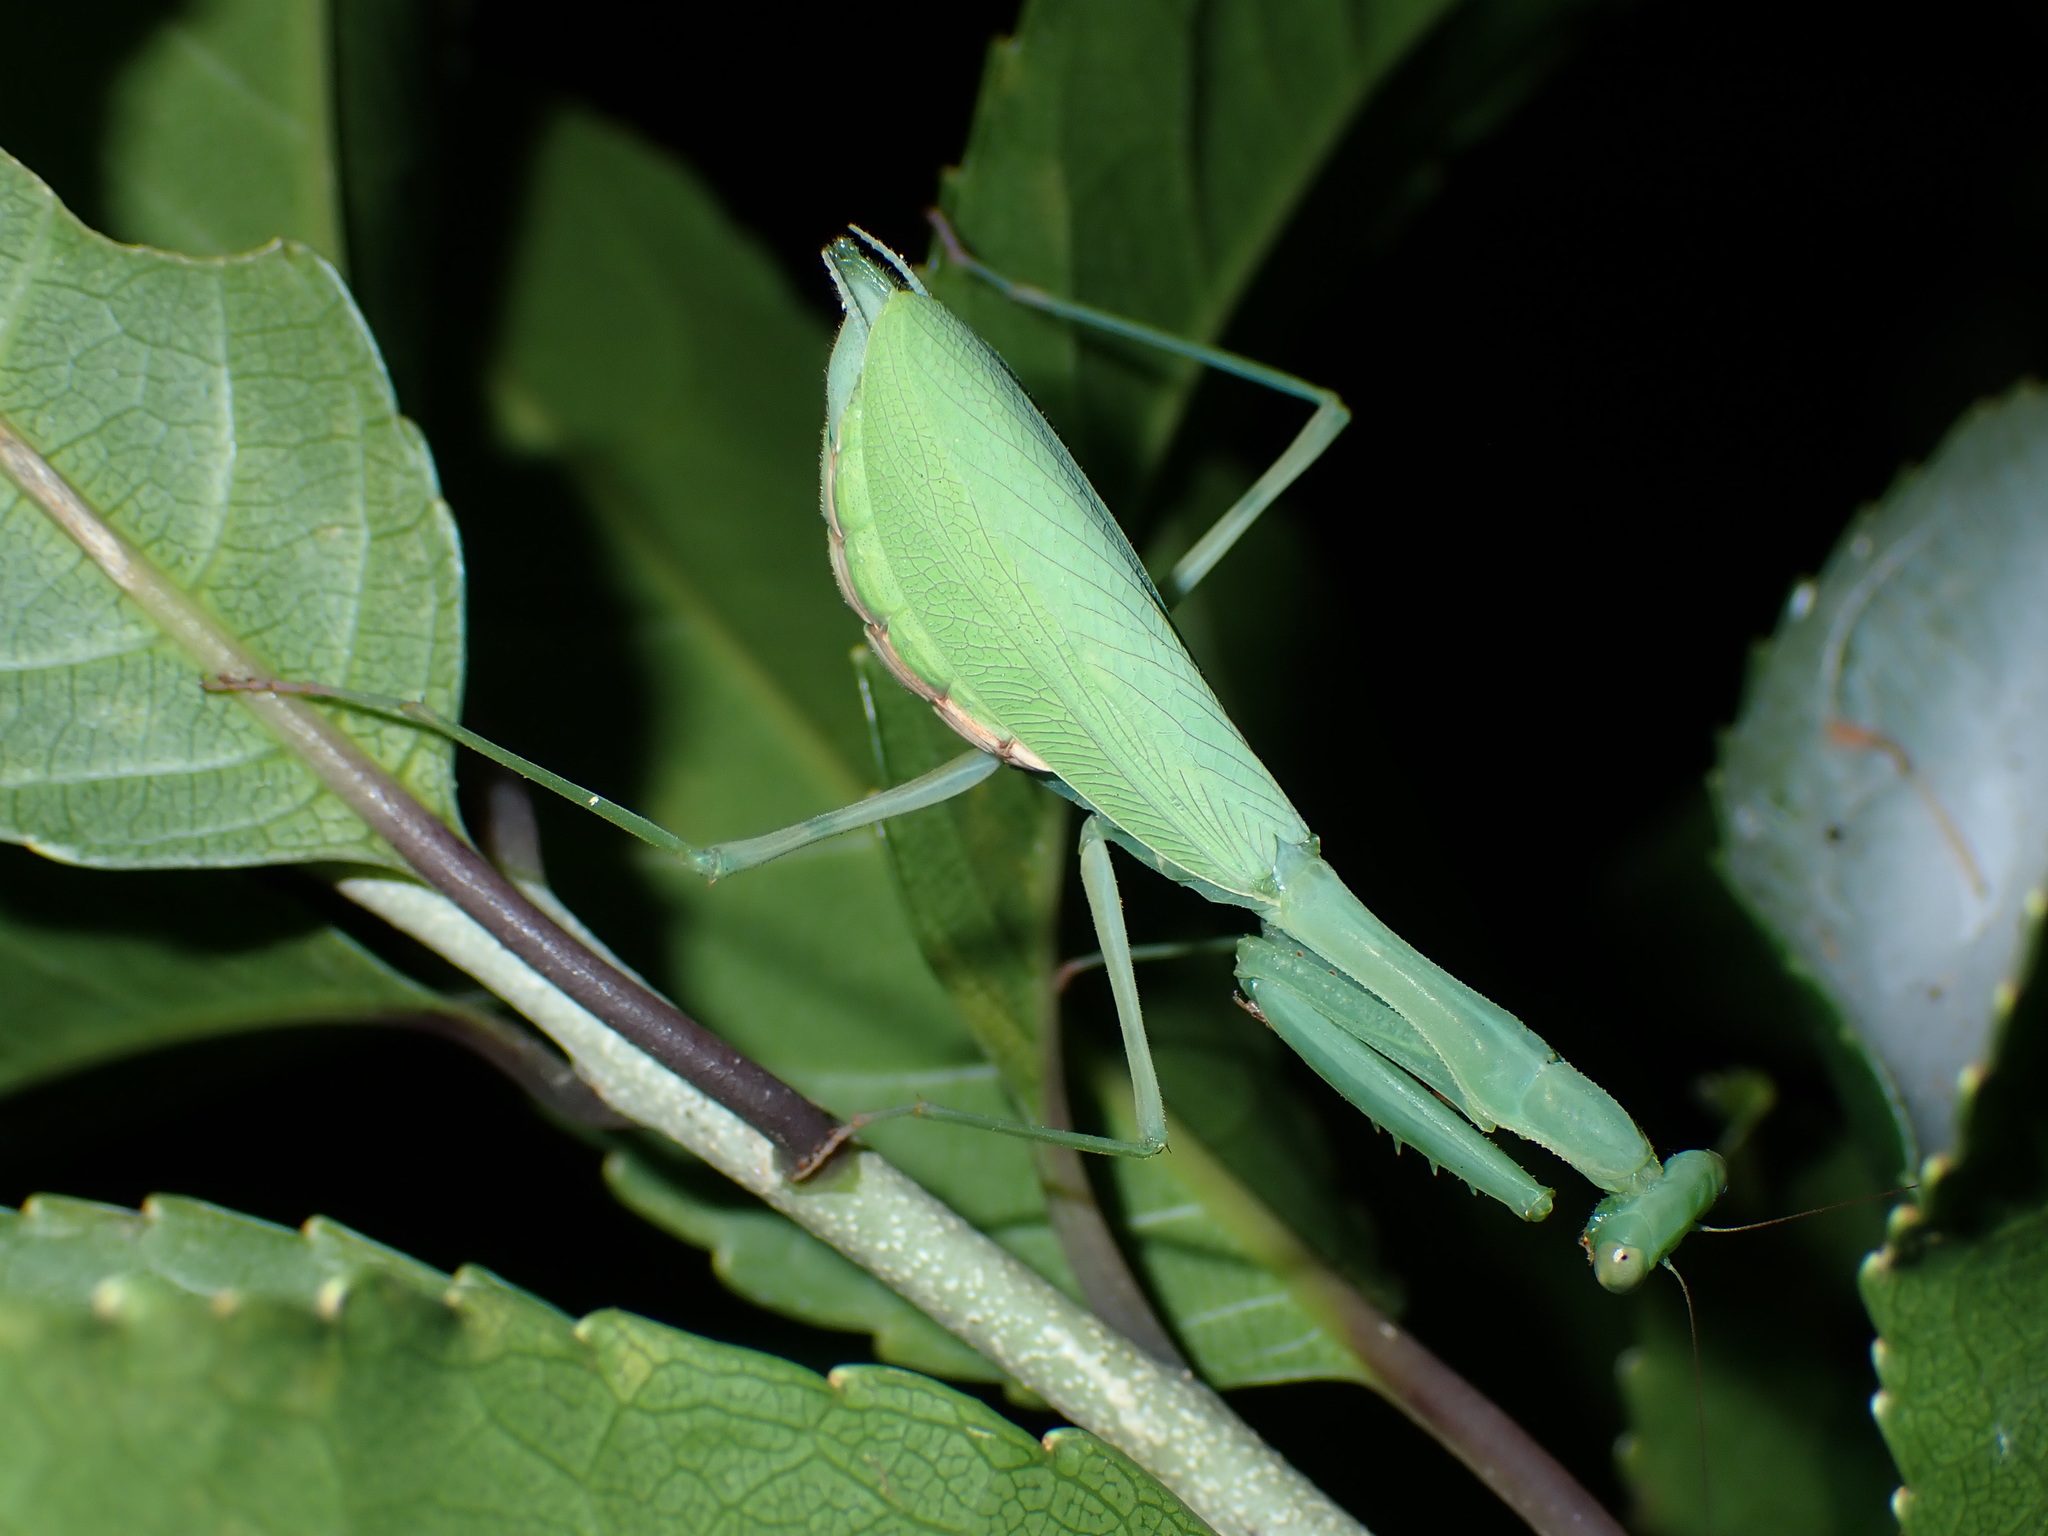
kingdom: Animalia
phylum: Arthropoda
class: Insecta
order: Mantodea
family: Miomantidae
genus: Miomantis
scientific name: Miomantis caffra
